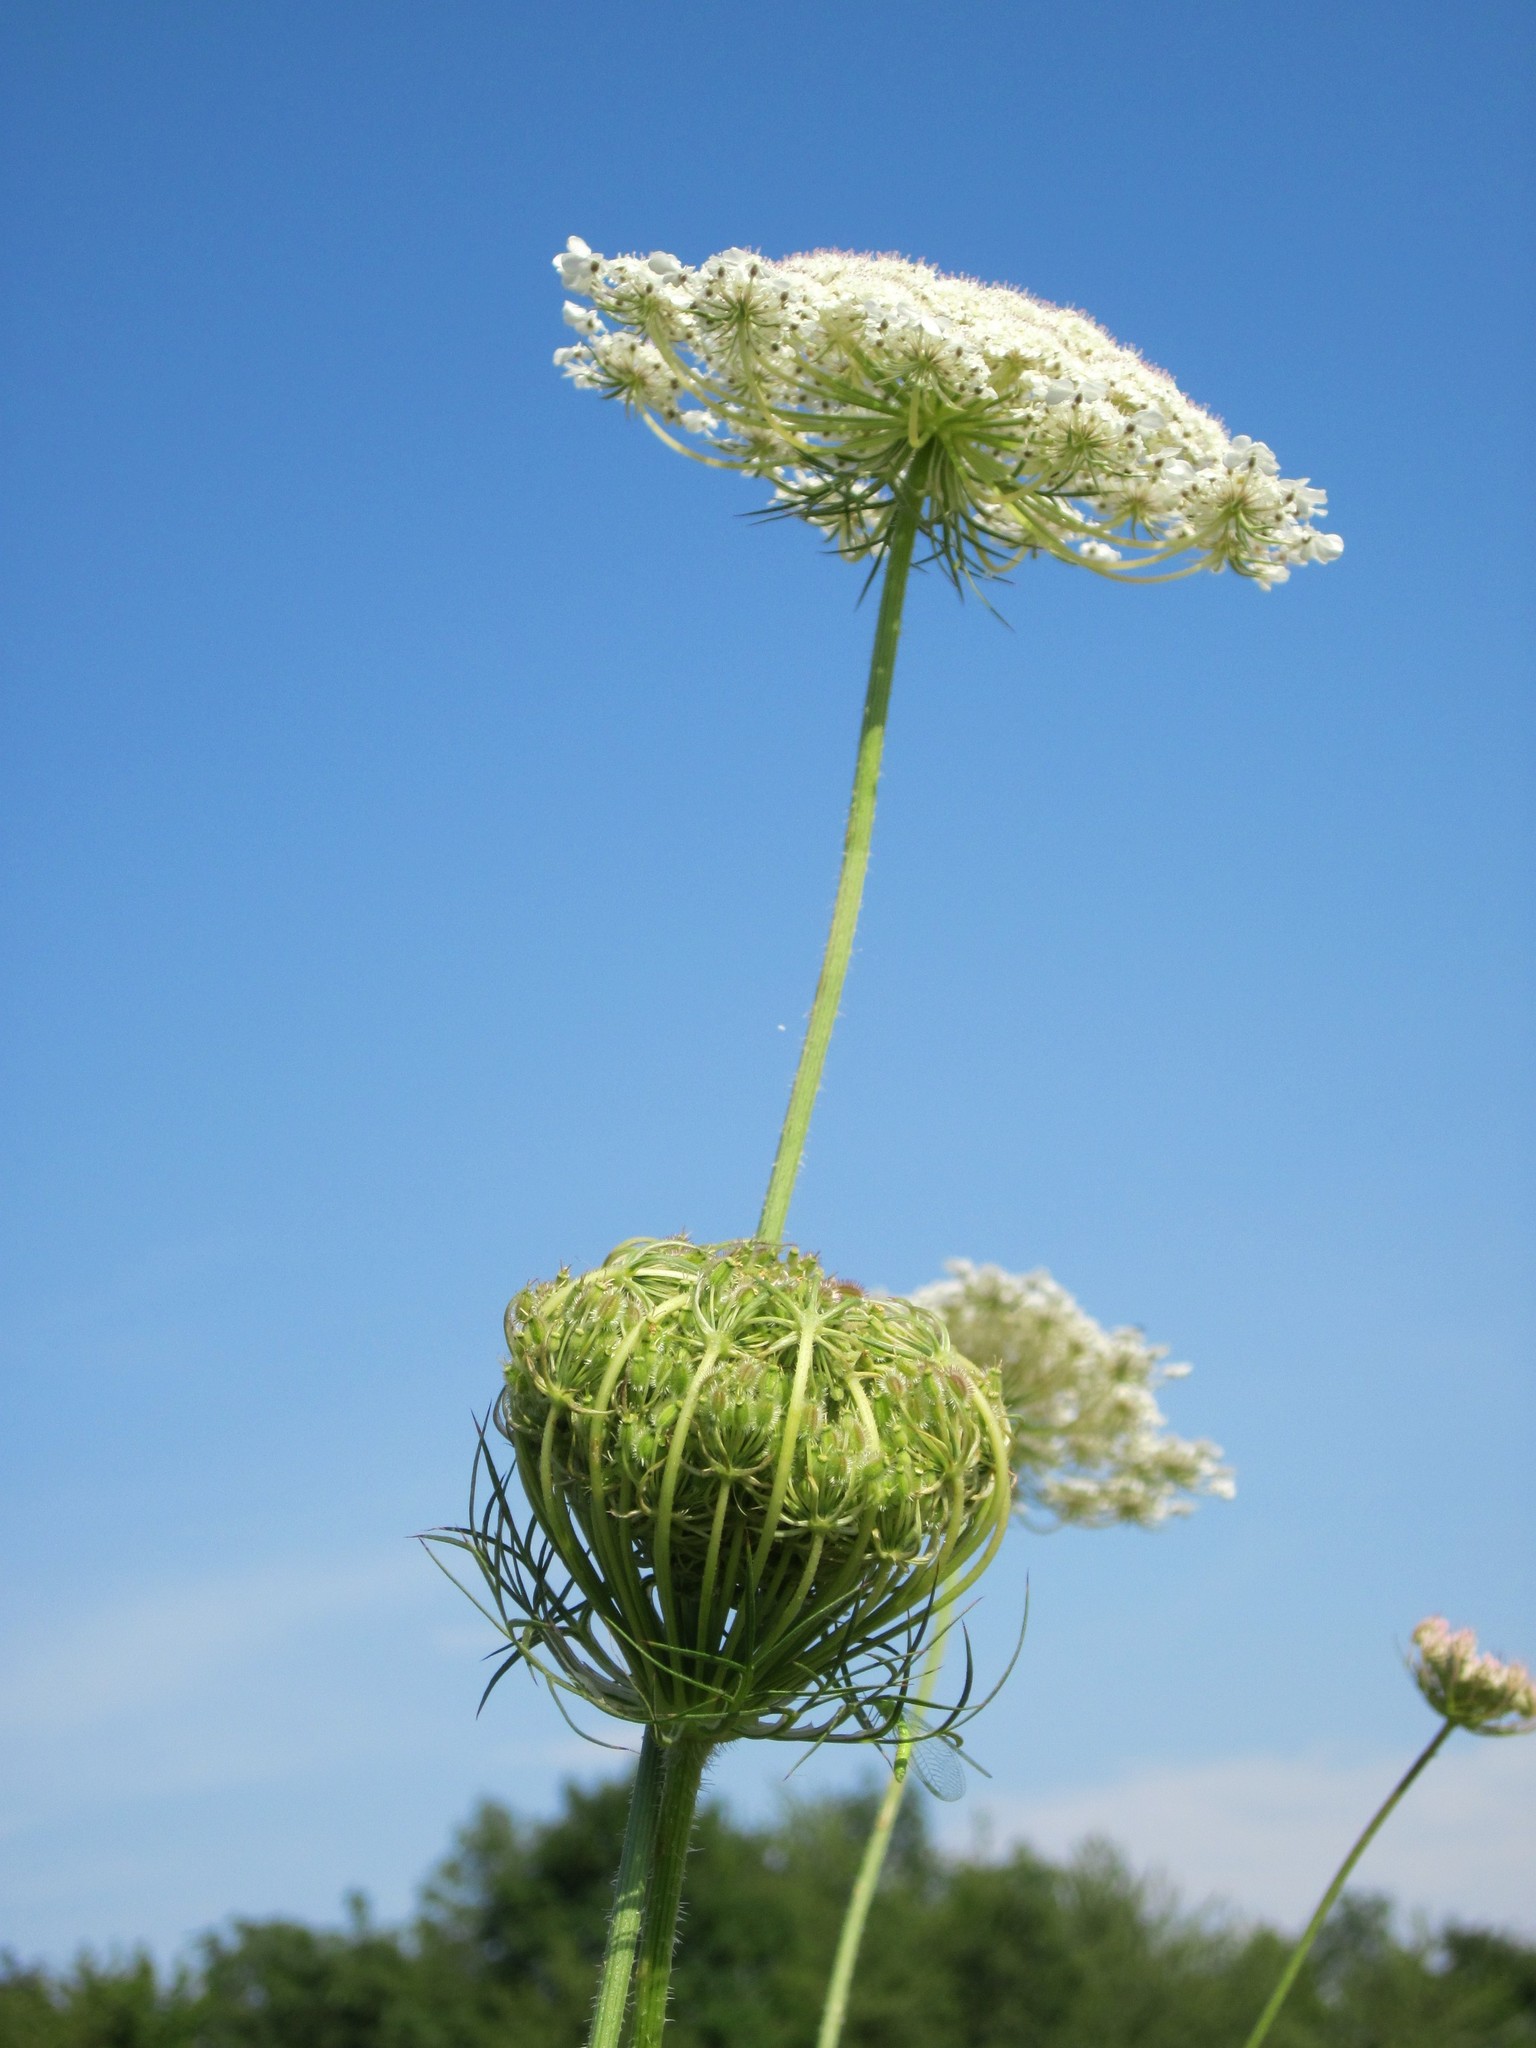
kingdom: Plantae
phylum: Tracheophyta
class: Magnoliopsida
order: Apiales
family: Apiaceae
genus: Daucus
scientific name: Daucus carota
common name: Wild carrot
